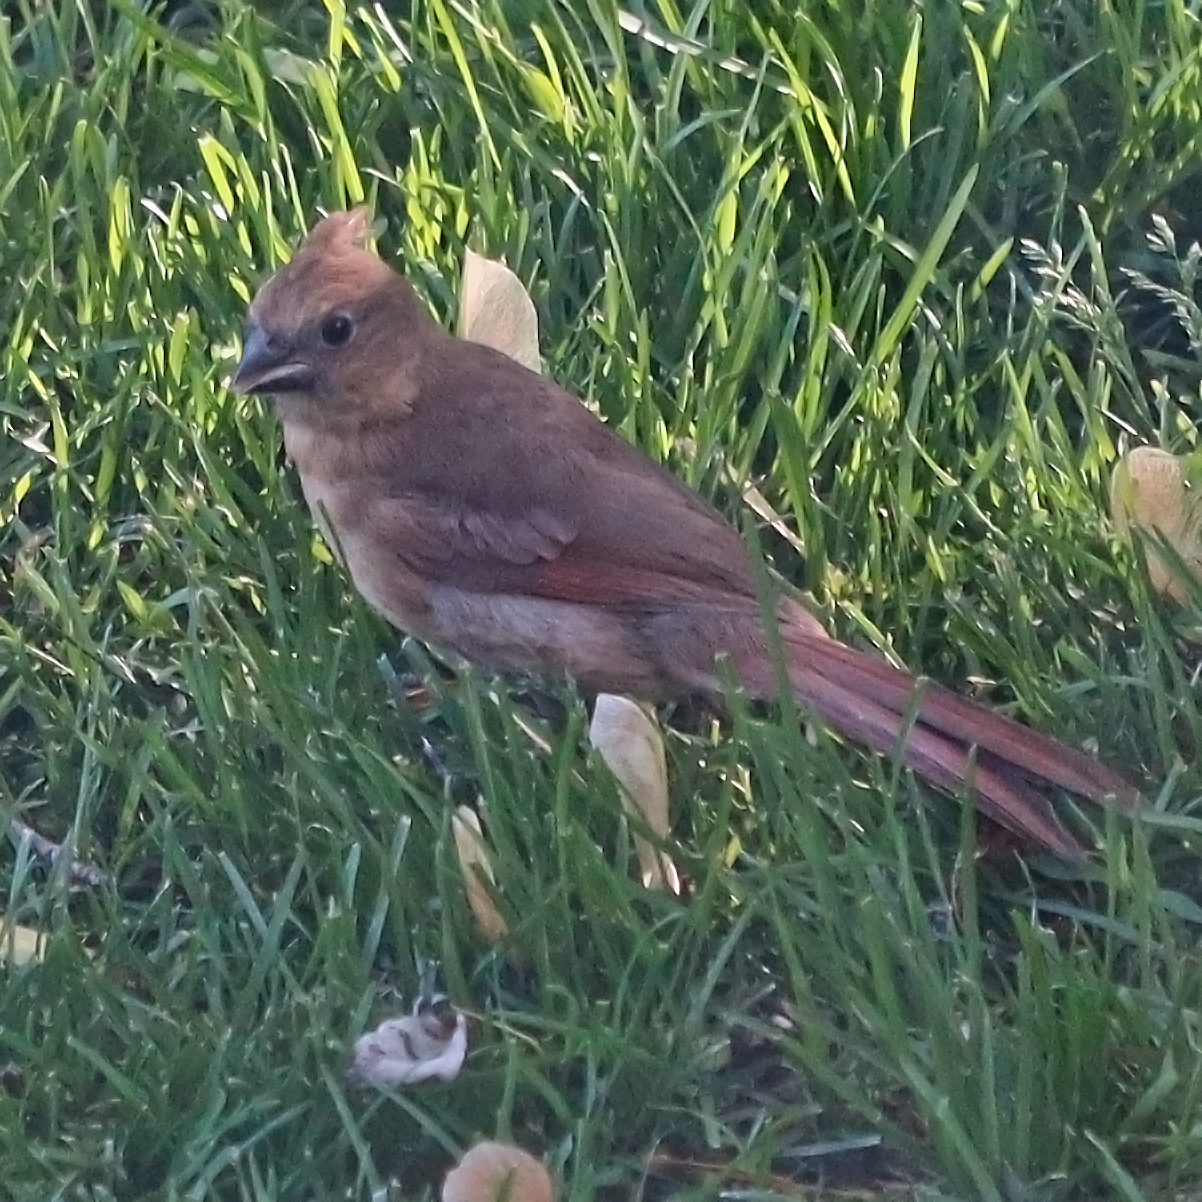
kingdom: Animalia
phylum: Chordata
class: Aves
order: Passeriformes
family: Cardinalidae
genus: Cardinalis
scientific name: Cardinalis cardinalis
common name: Northern cardinal
